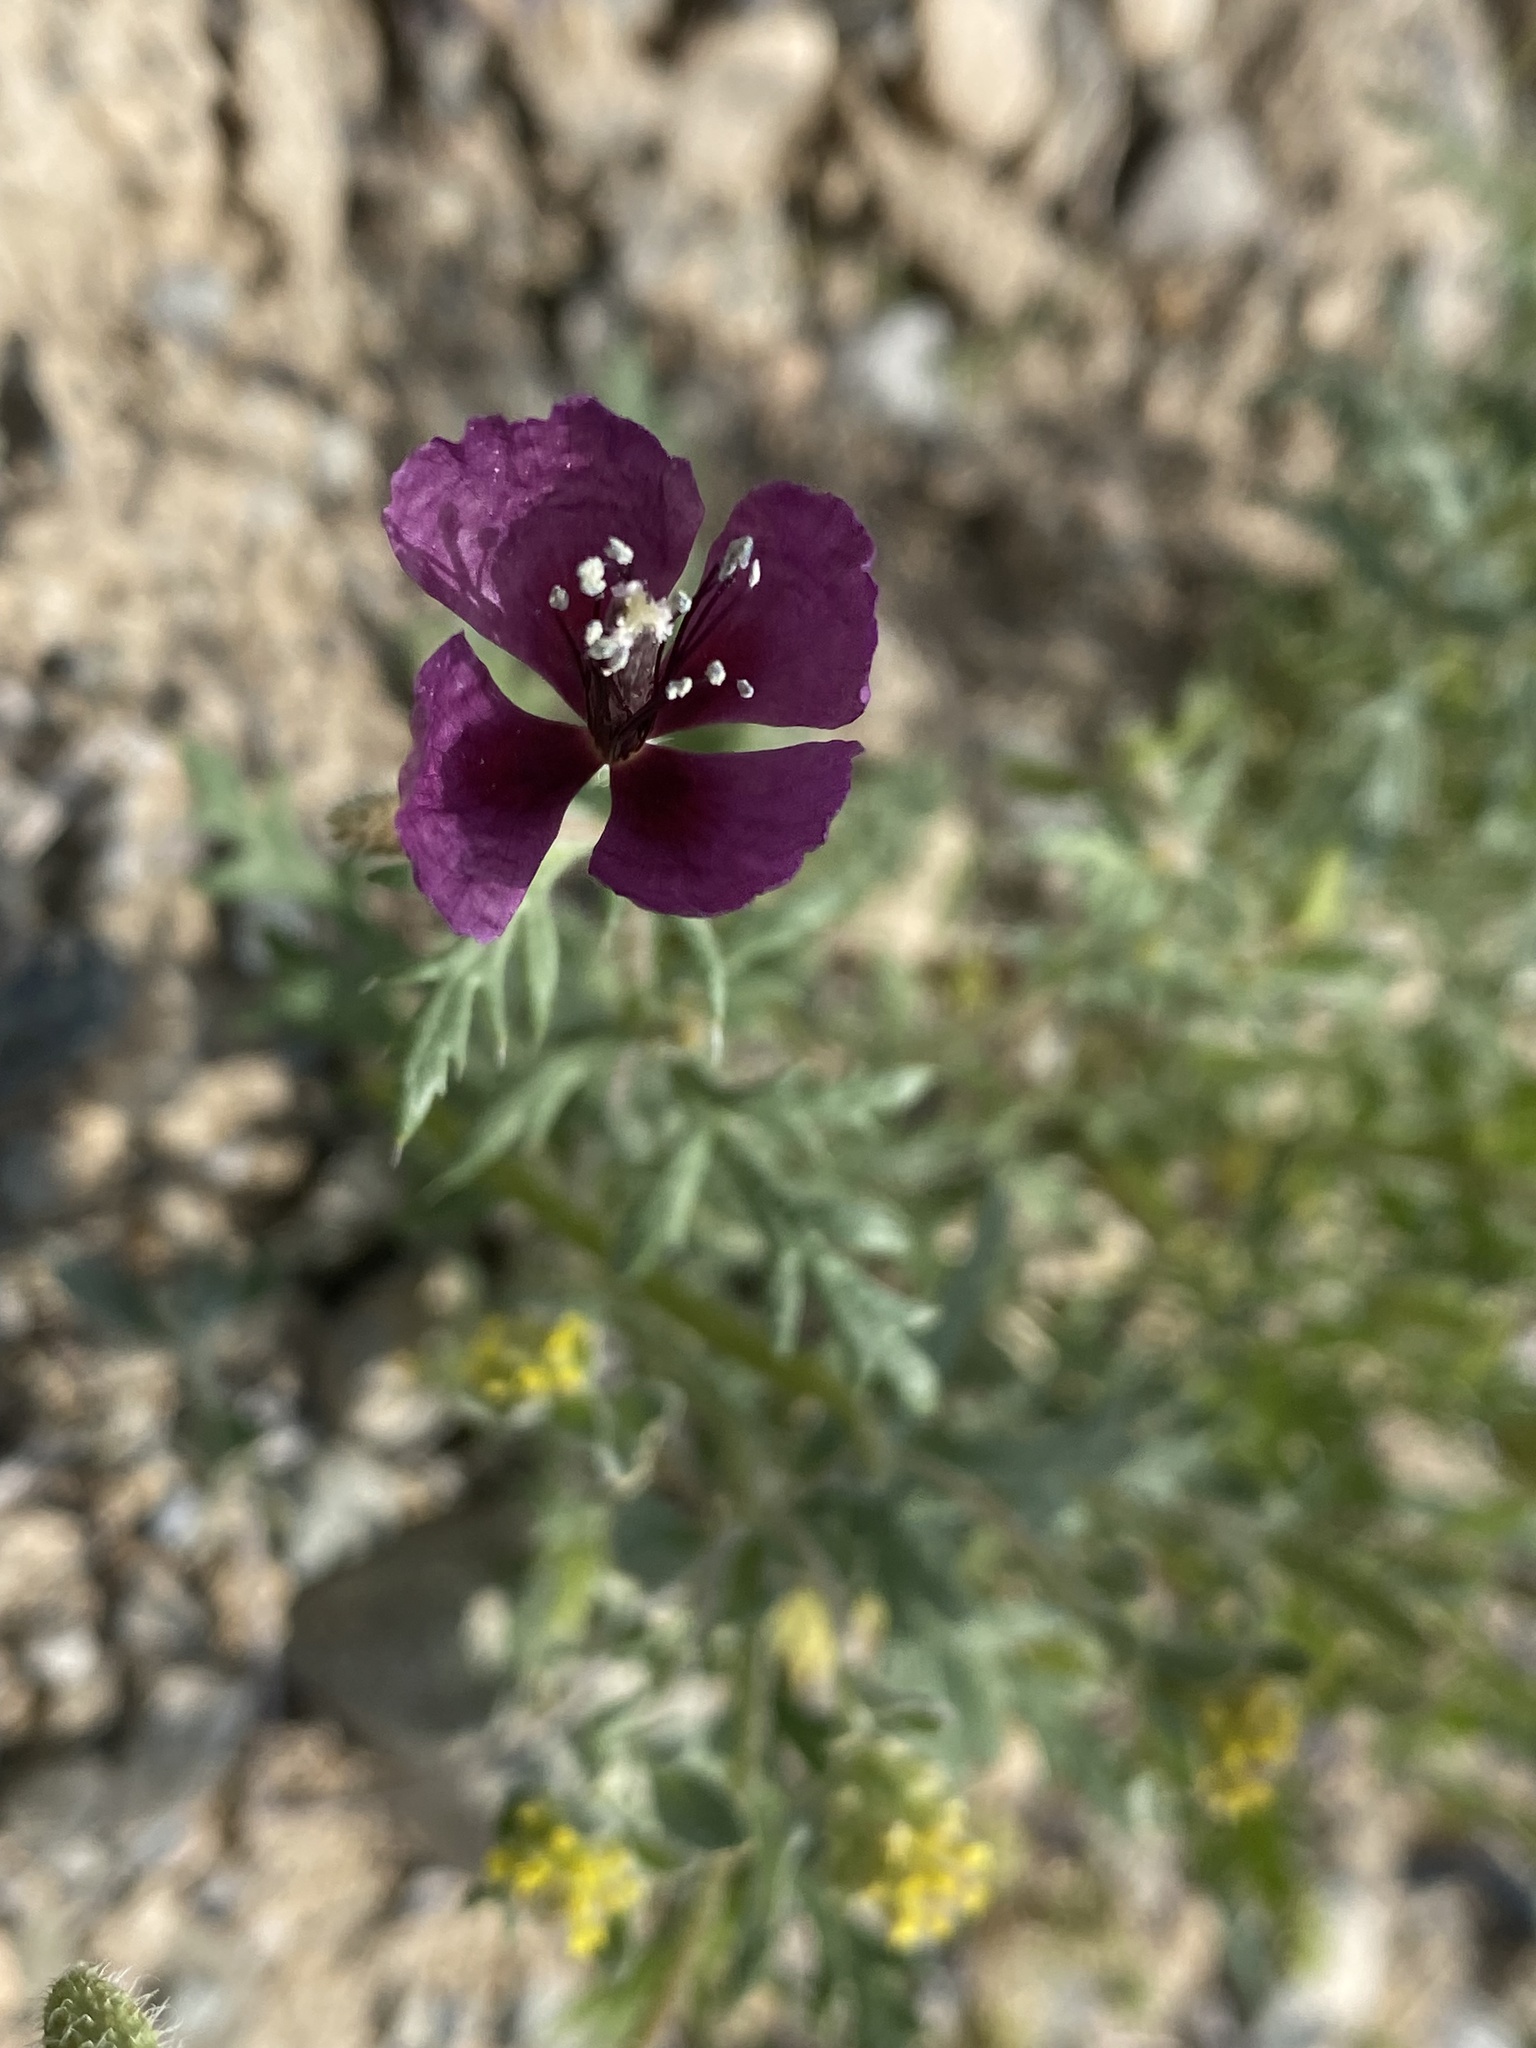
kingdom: Plantae
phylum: Tracheophyta
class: Magnoliopsida
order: Ranunculales
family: Papaveraceae
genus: Roemeria
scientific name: Roemeria hybrida
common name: Violet horned-poppy
